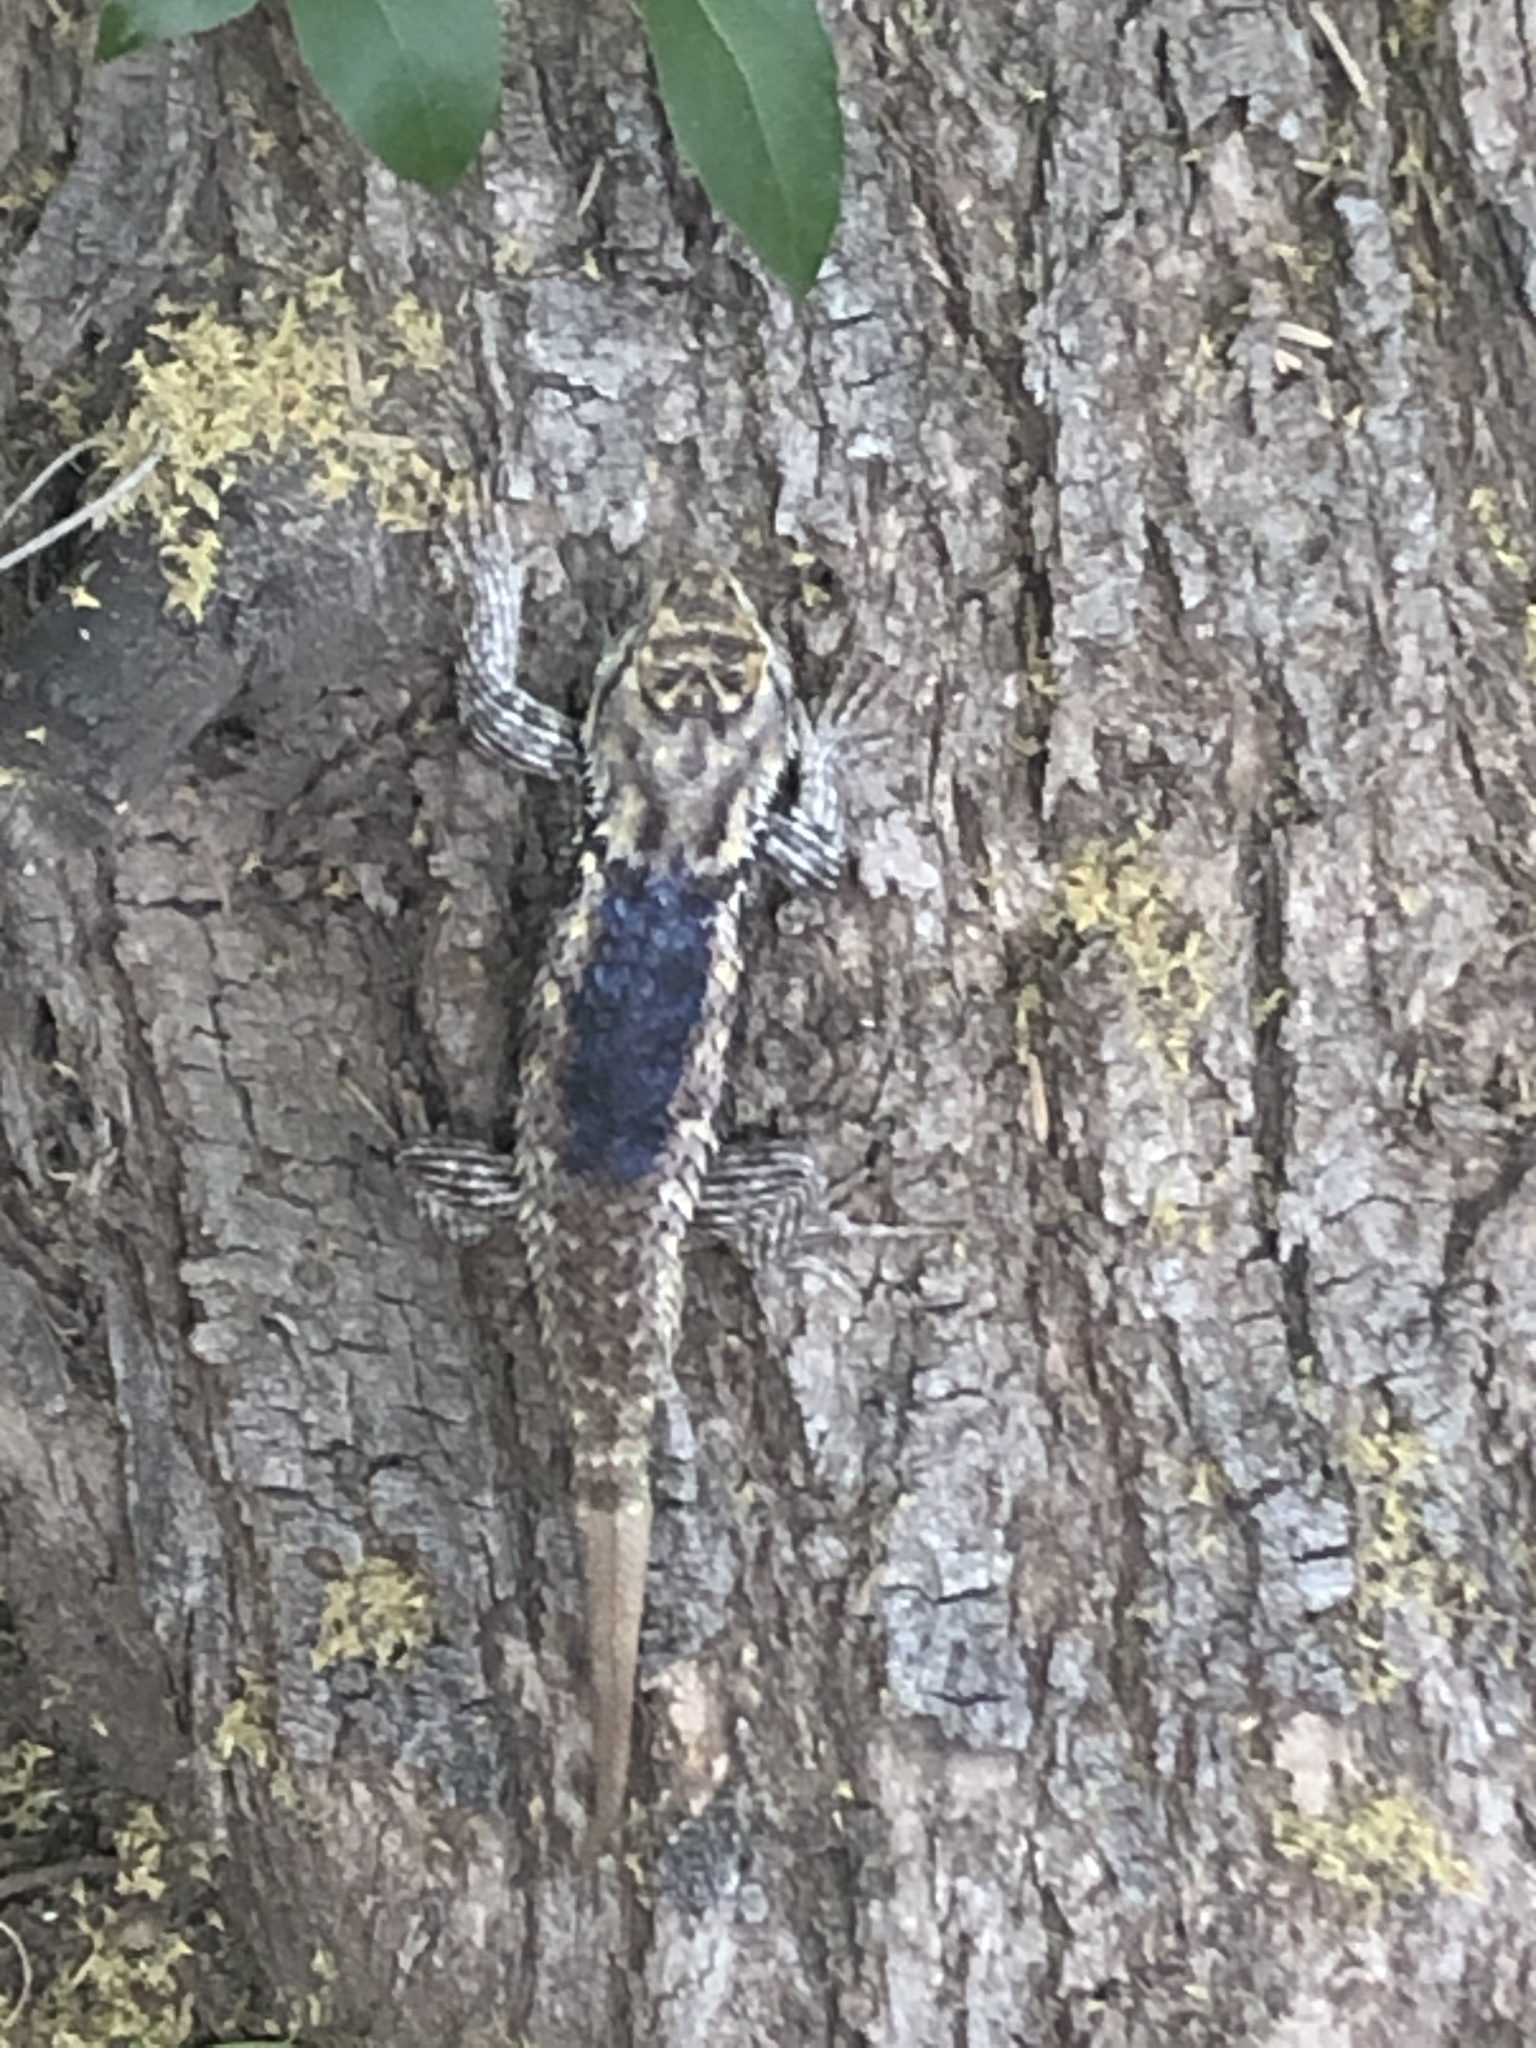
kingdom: Animalia
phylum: Chordata
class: Squamata
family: Phrynosomatidae
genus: Sceloporus
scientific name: Sceloporus magister
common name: Desert spiny lizard
